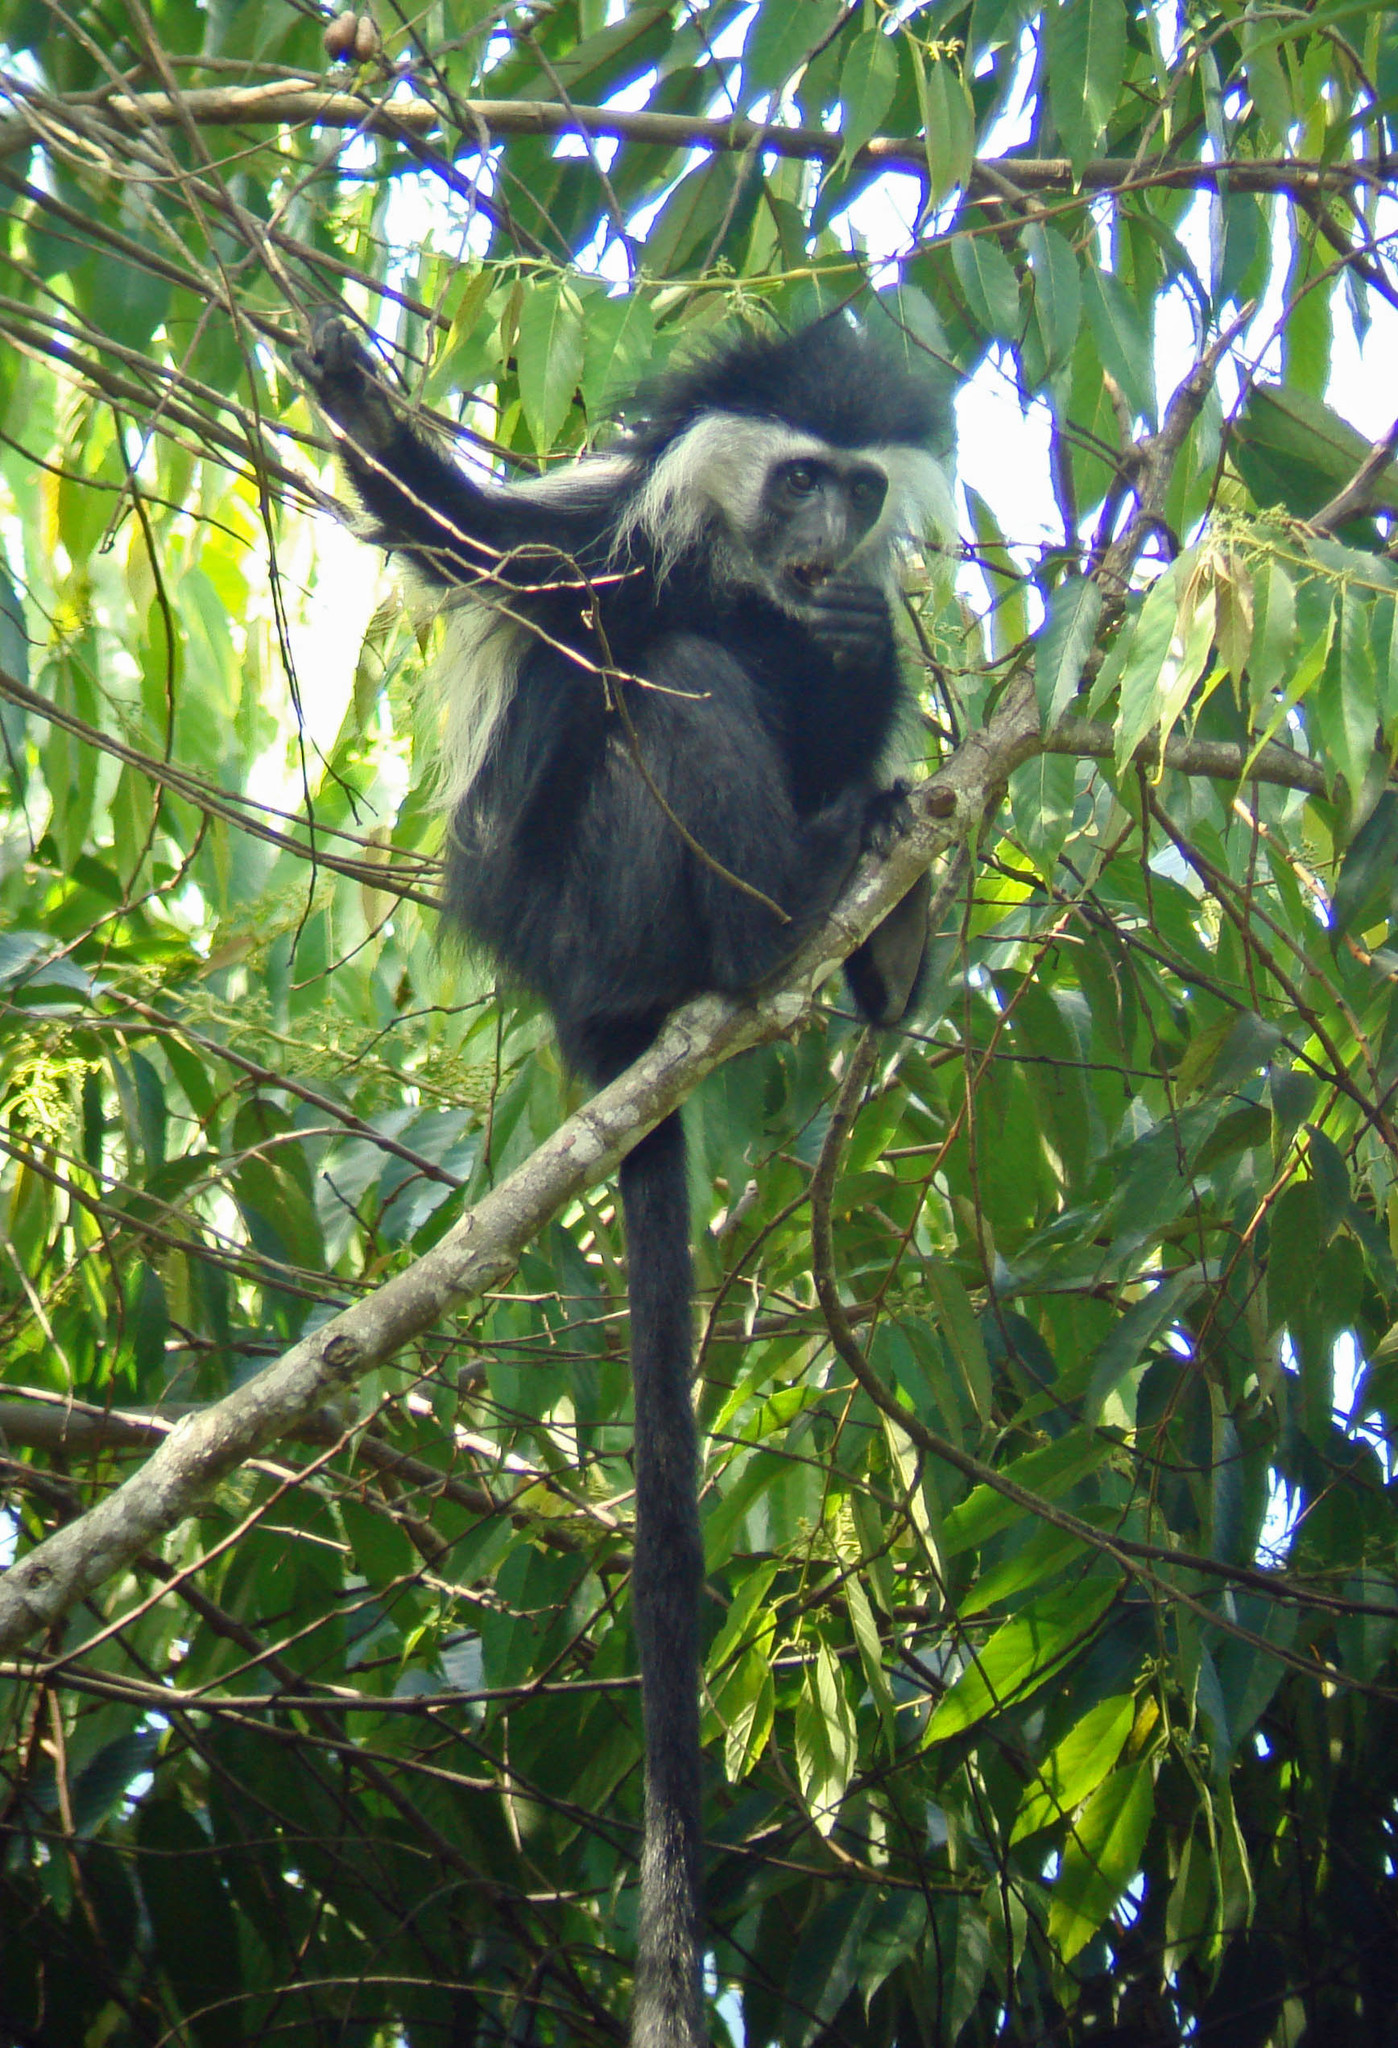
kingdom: Animalia
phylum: Chordata
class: Mammalia
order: Primates
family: Cercopithecidae
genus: Colobus
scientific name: Colobus angolensis
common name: Angola colobus
